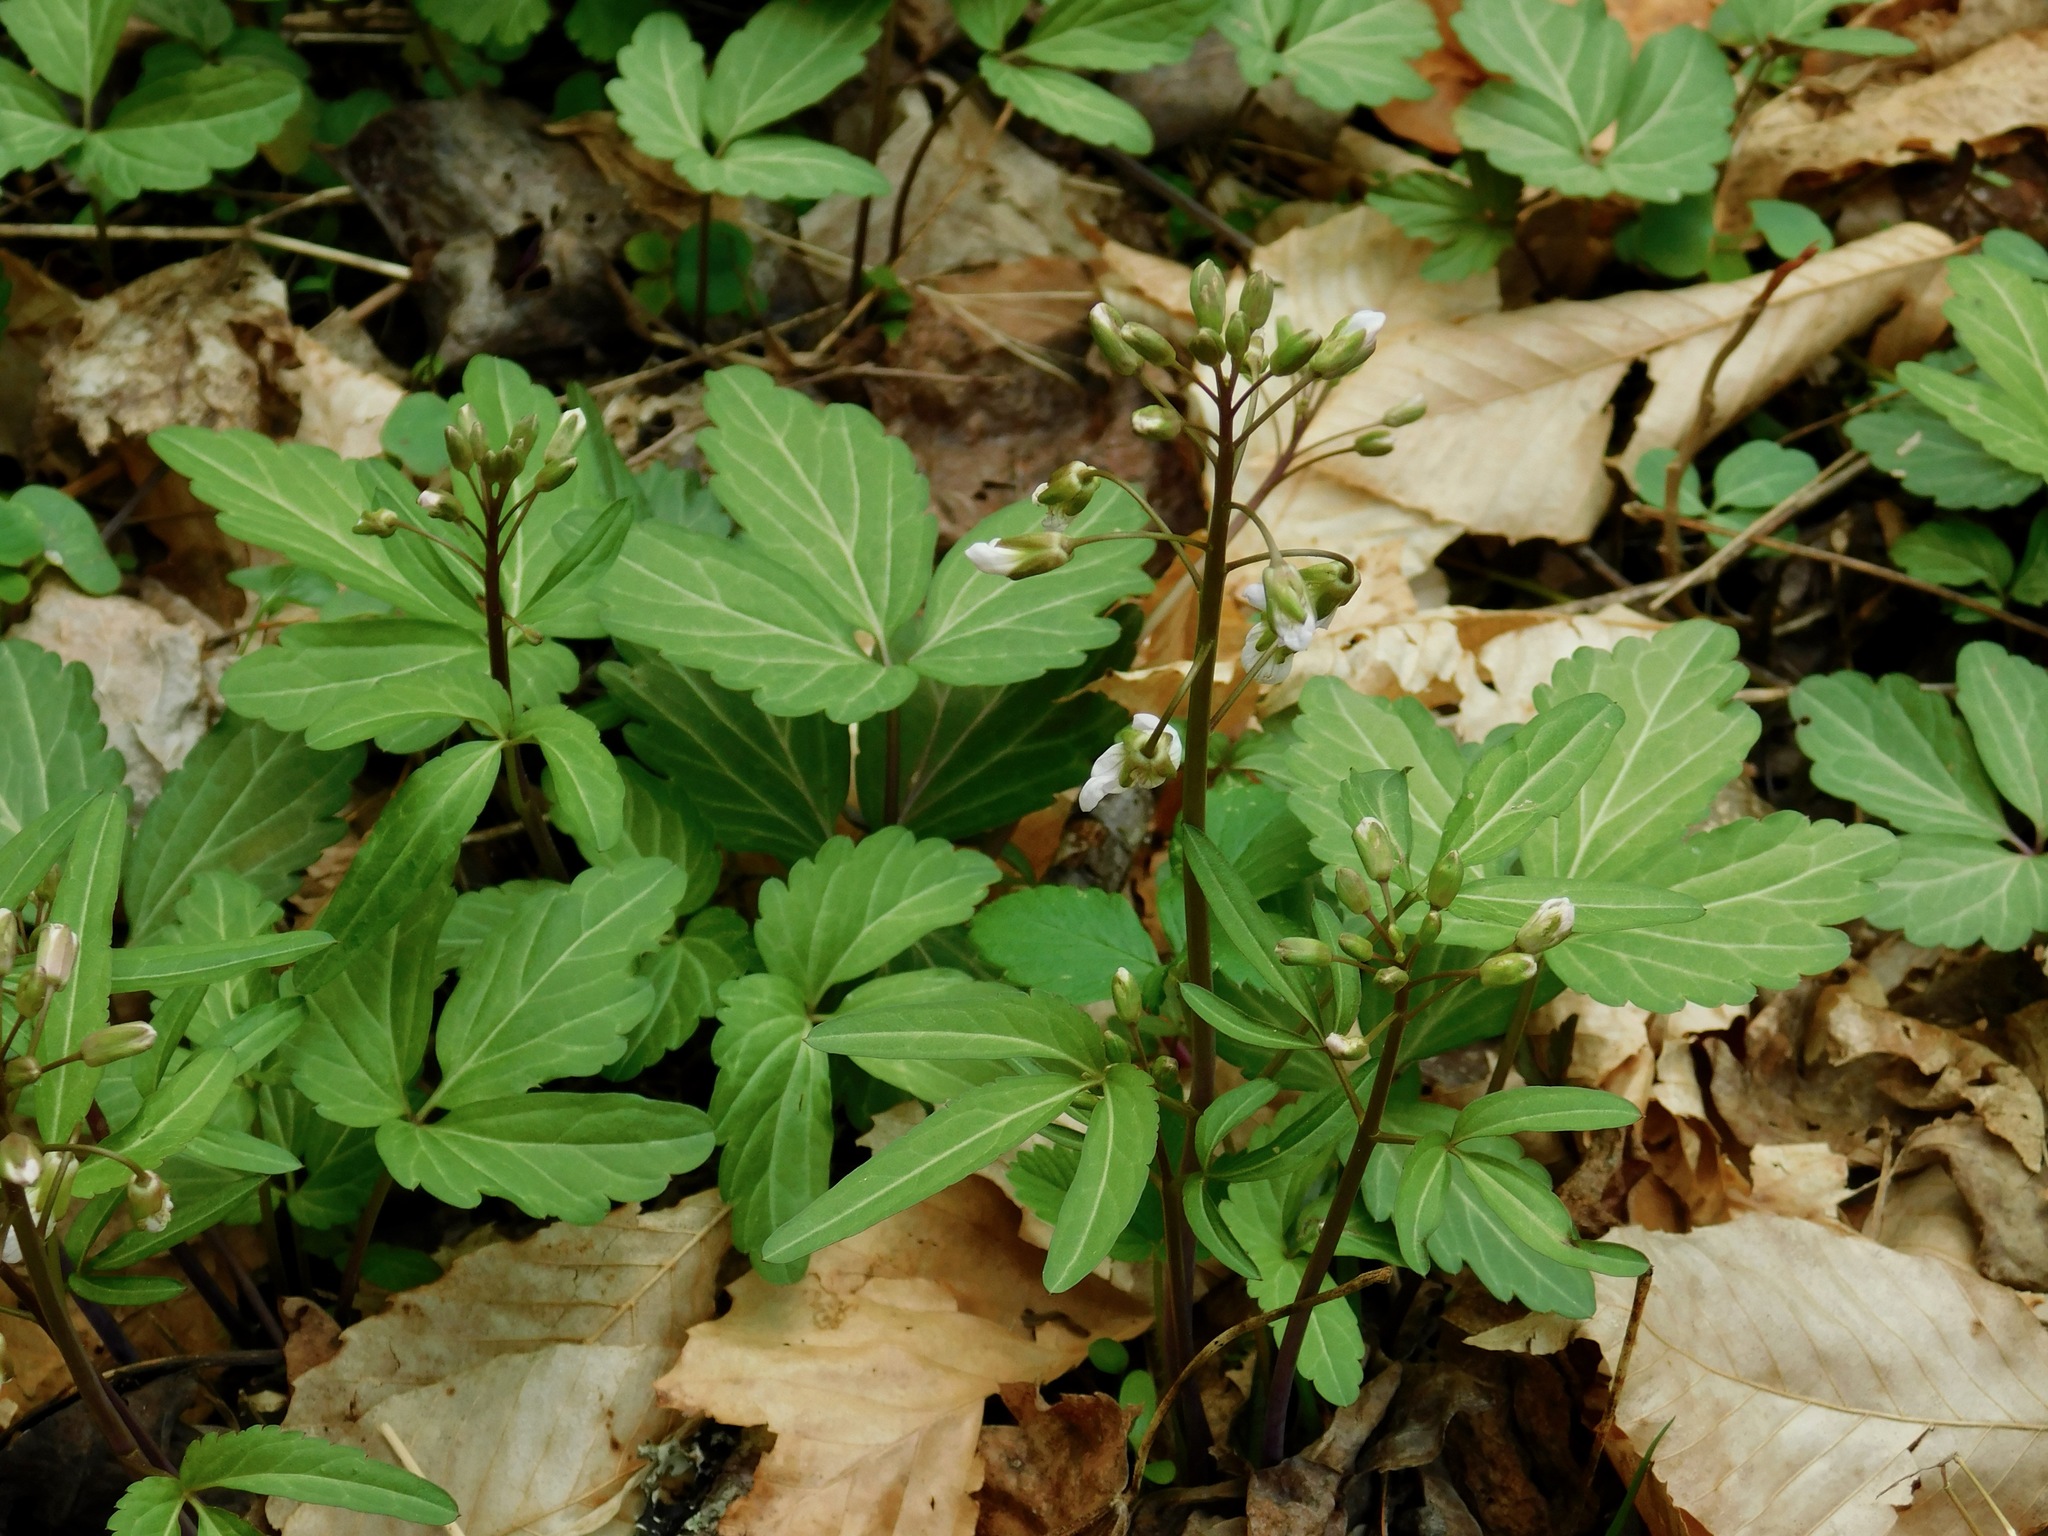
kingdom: Plantae
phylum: Tracheophyta
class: Magnoliopsida
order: Brassicales
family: Brassicaceae
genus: Cardamine
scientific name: Cardamine diphylla
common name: Broad-leaved toothwort
